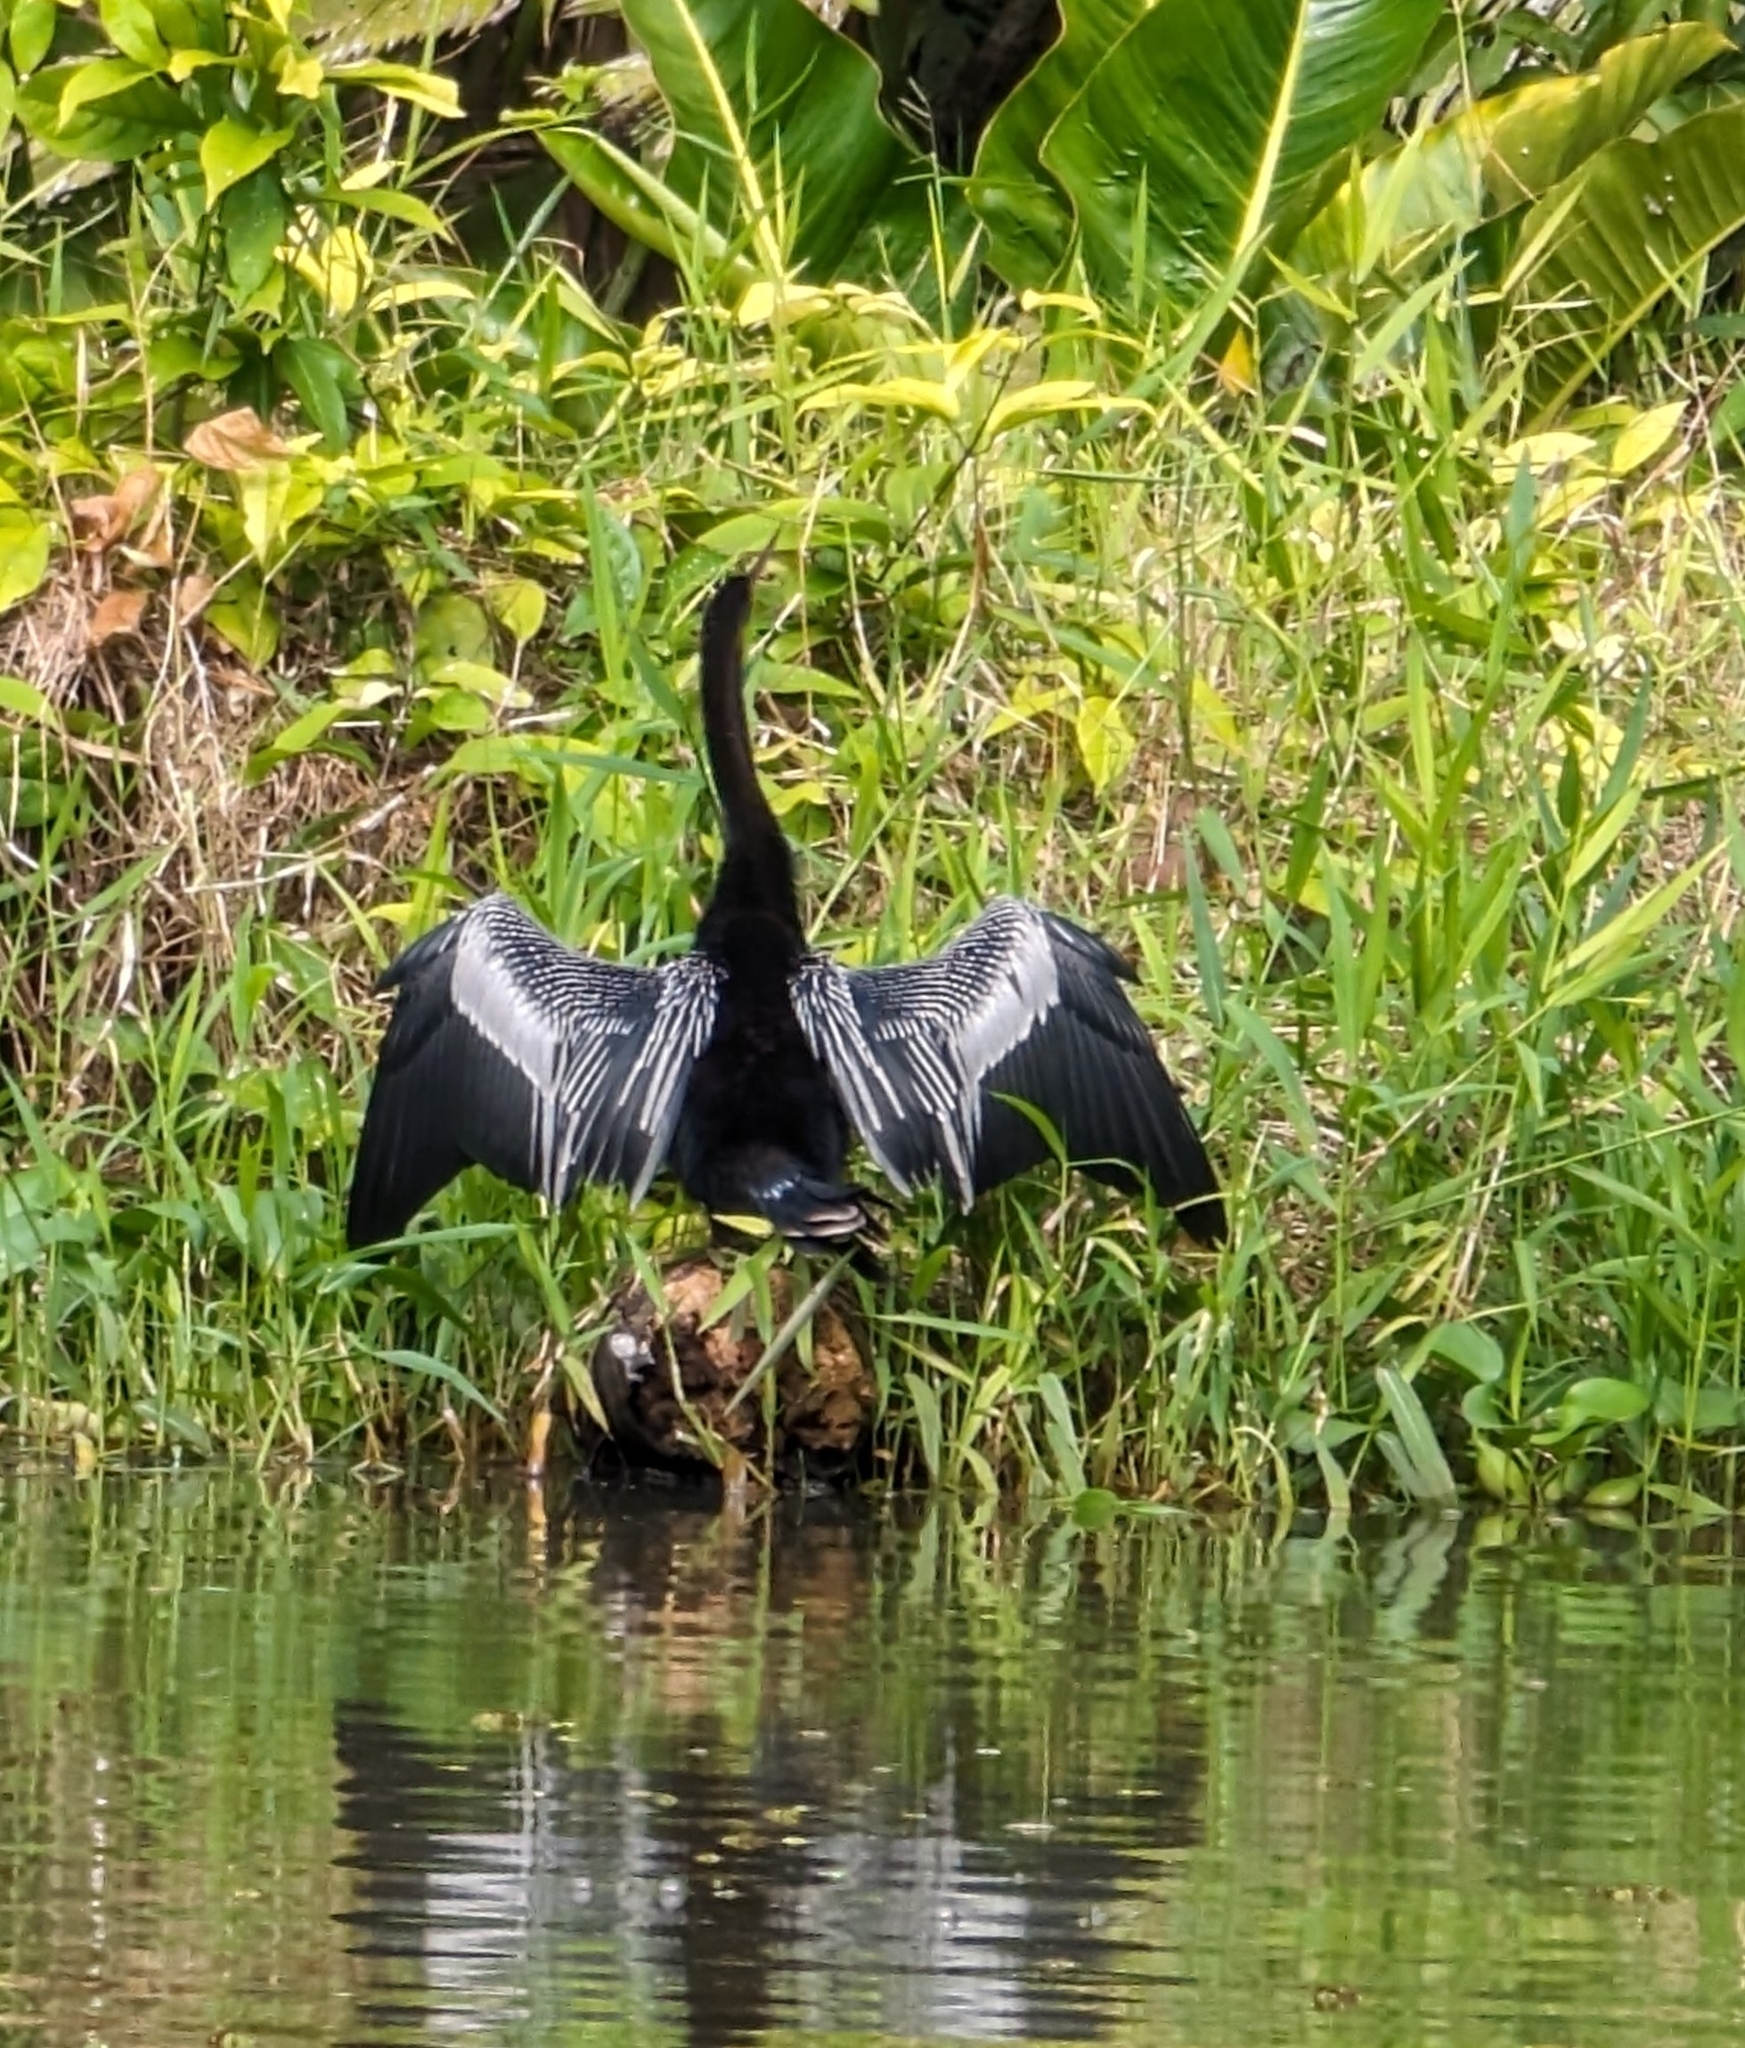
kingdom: Animalia
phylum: Chordata
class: Aves
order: Suliformes
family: Anhingidae
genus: Anhinga
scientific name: Anhinga anhinga
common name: Anhinga
